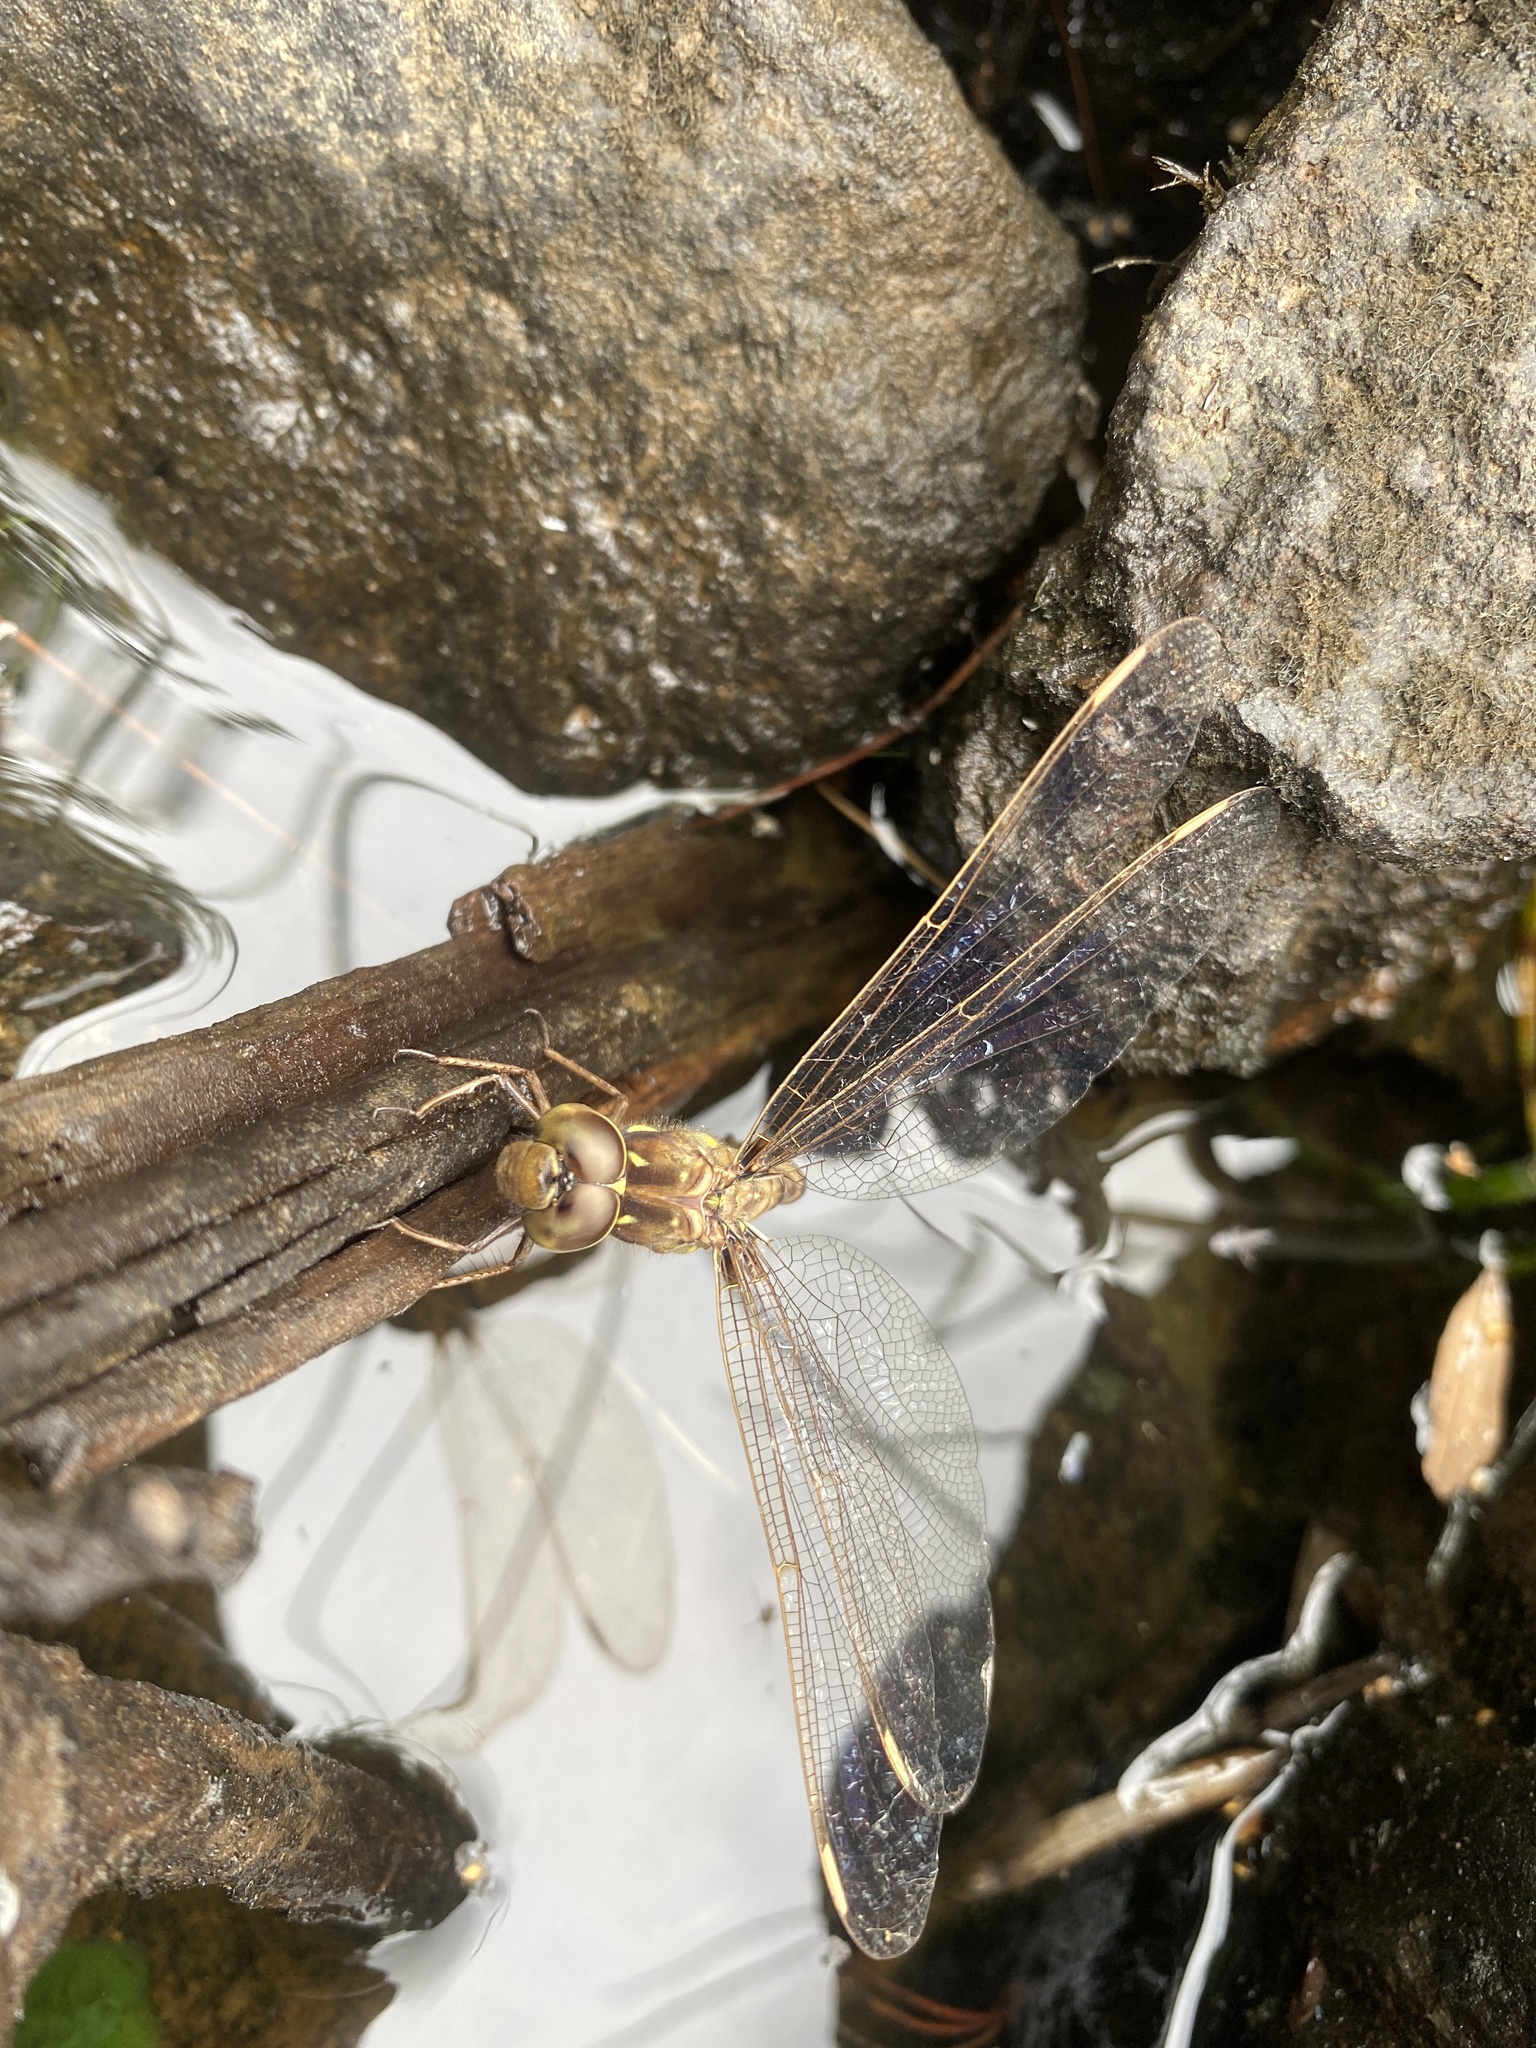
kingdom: Animalia
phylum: Arthropoda
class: Insecta
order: Odonata
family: Aeshnidae
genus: Boyeria
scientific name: Boyeria vinosa
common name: Fawn darner
